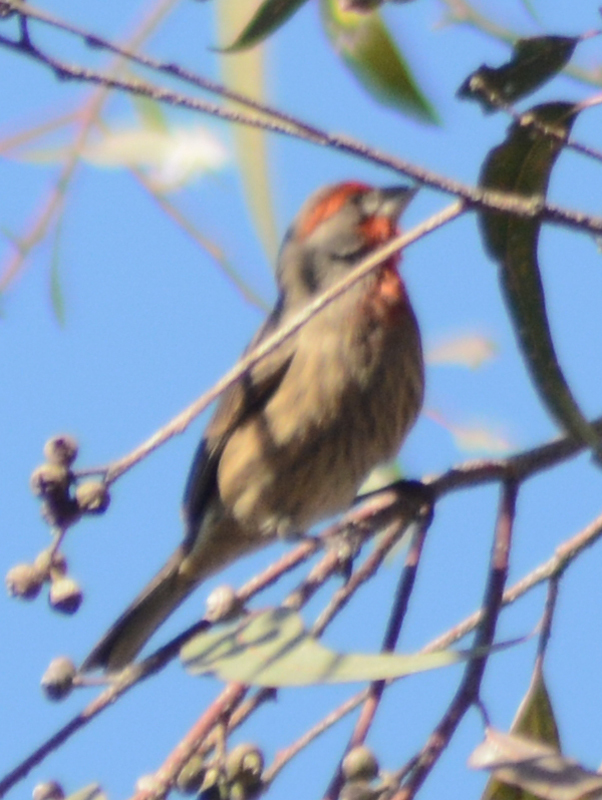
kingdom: Animalia
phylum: Chordata
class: Aves
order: Passeriformes
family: Fringillidae
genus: Haemorhous
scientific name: Haemorhous mexicanus
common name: House finch
